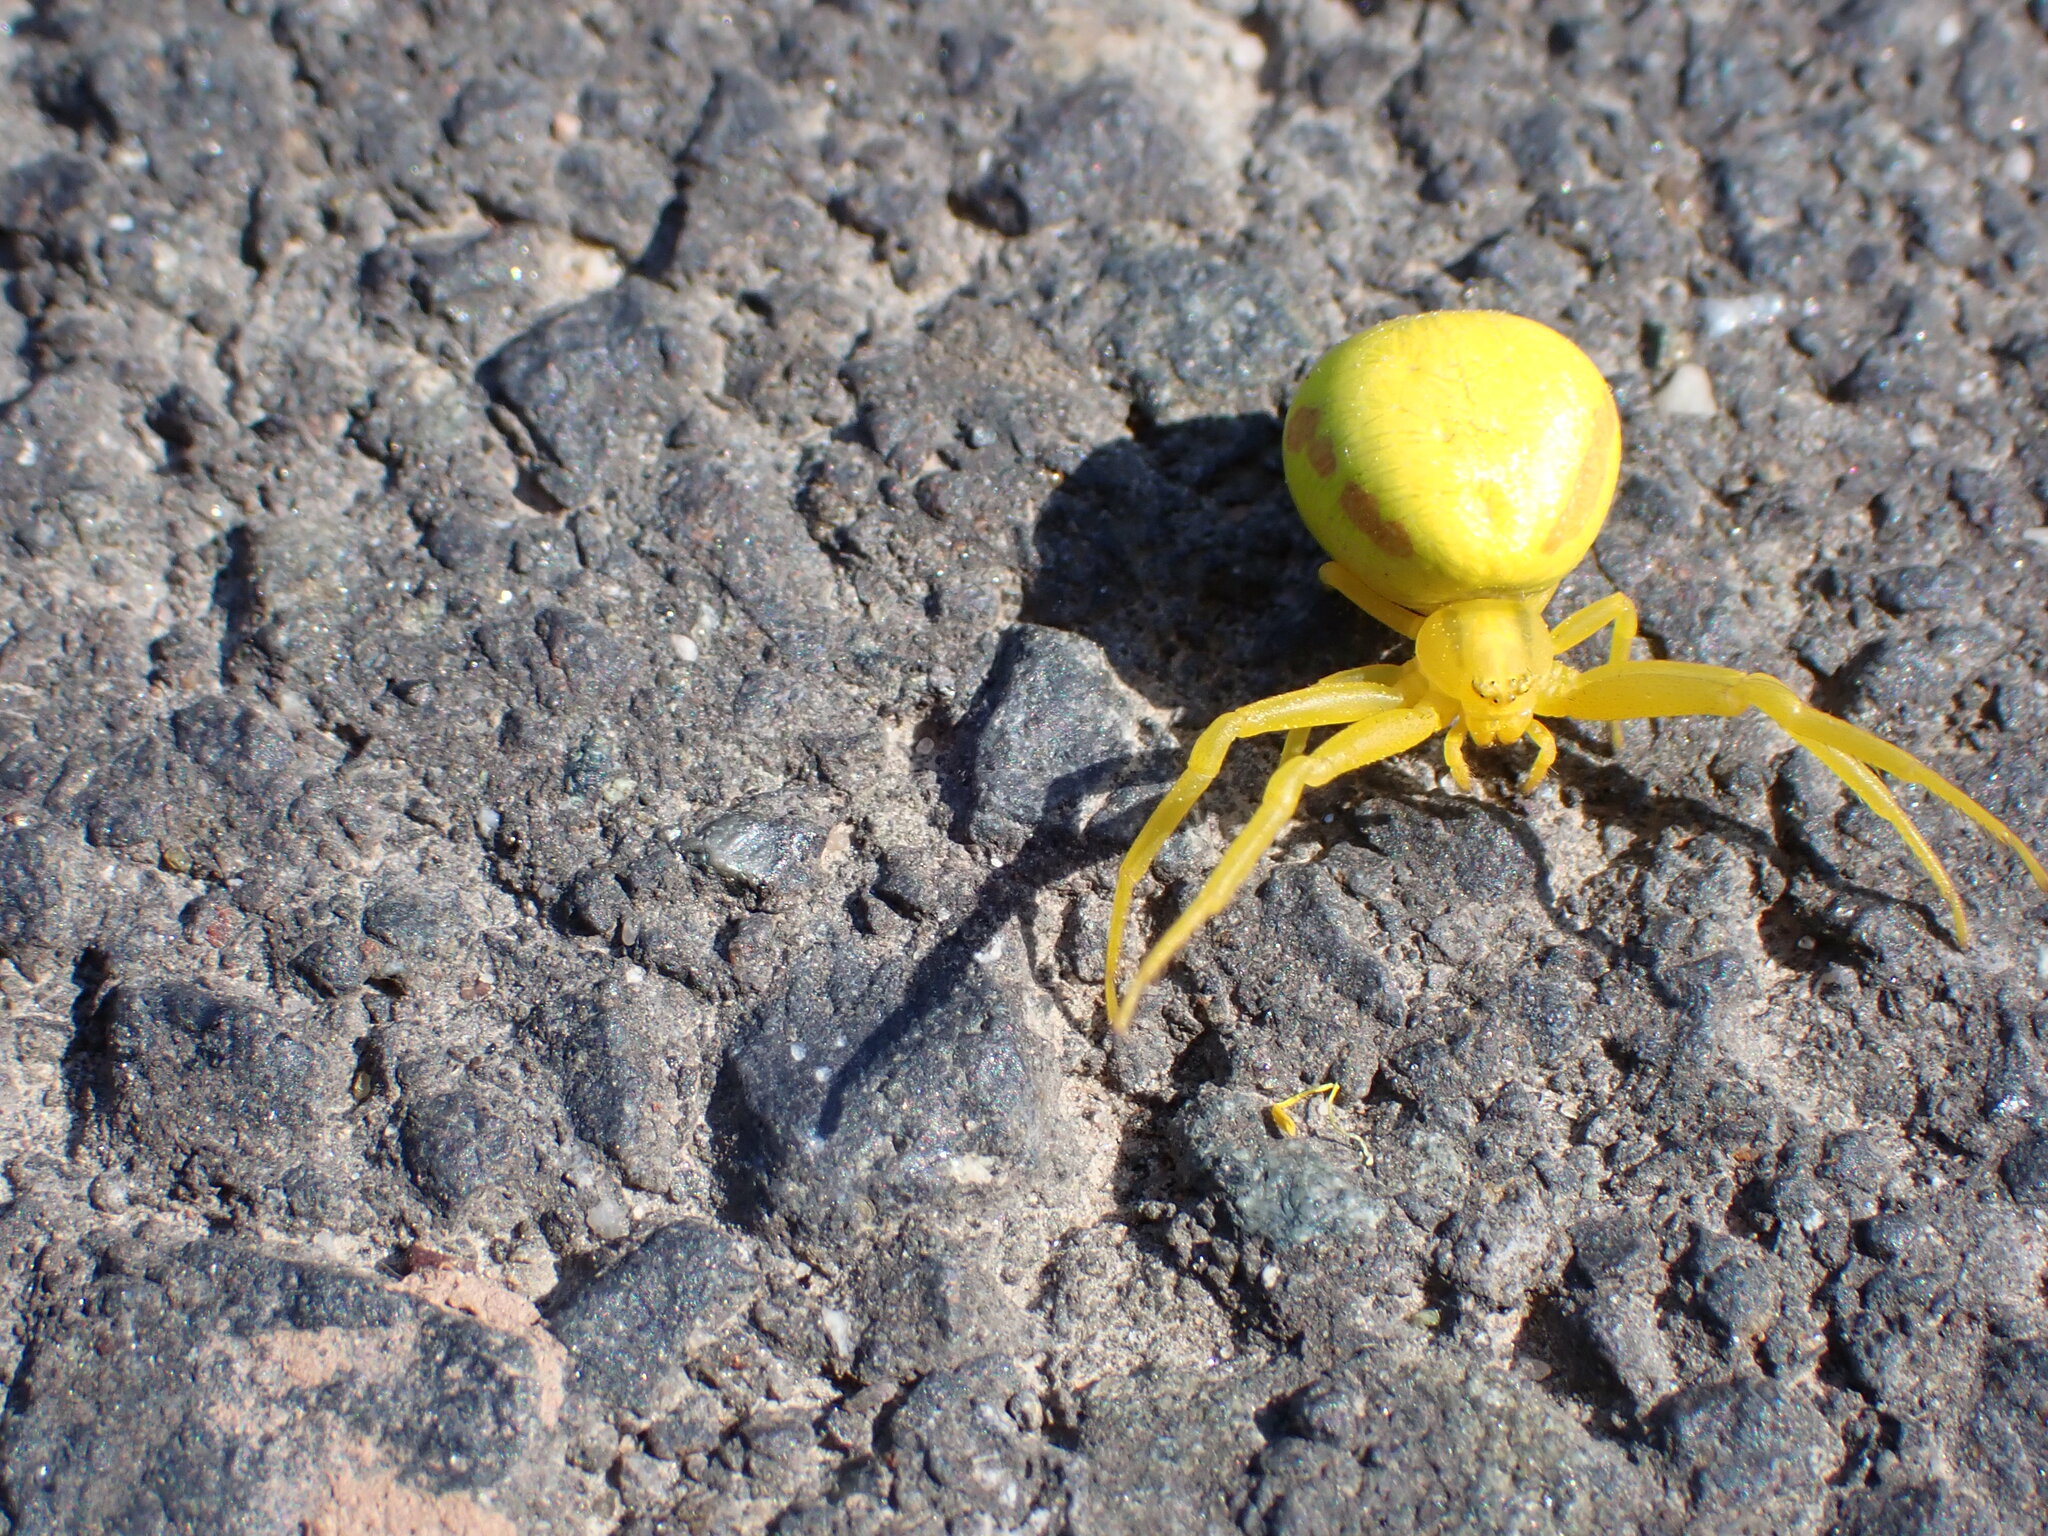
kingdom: Animalia
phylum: Arthropoda
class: Arachnida
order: Araneae
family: Thomisidae
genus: Misumena
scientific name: Misumena vatia
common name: Goldenrod crab spider
